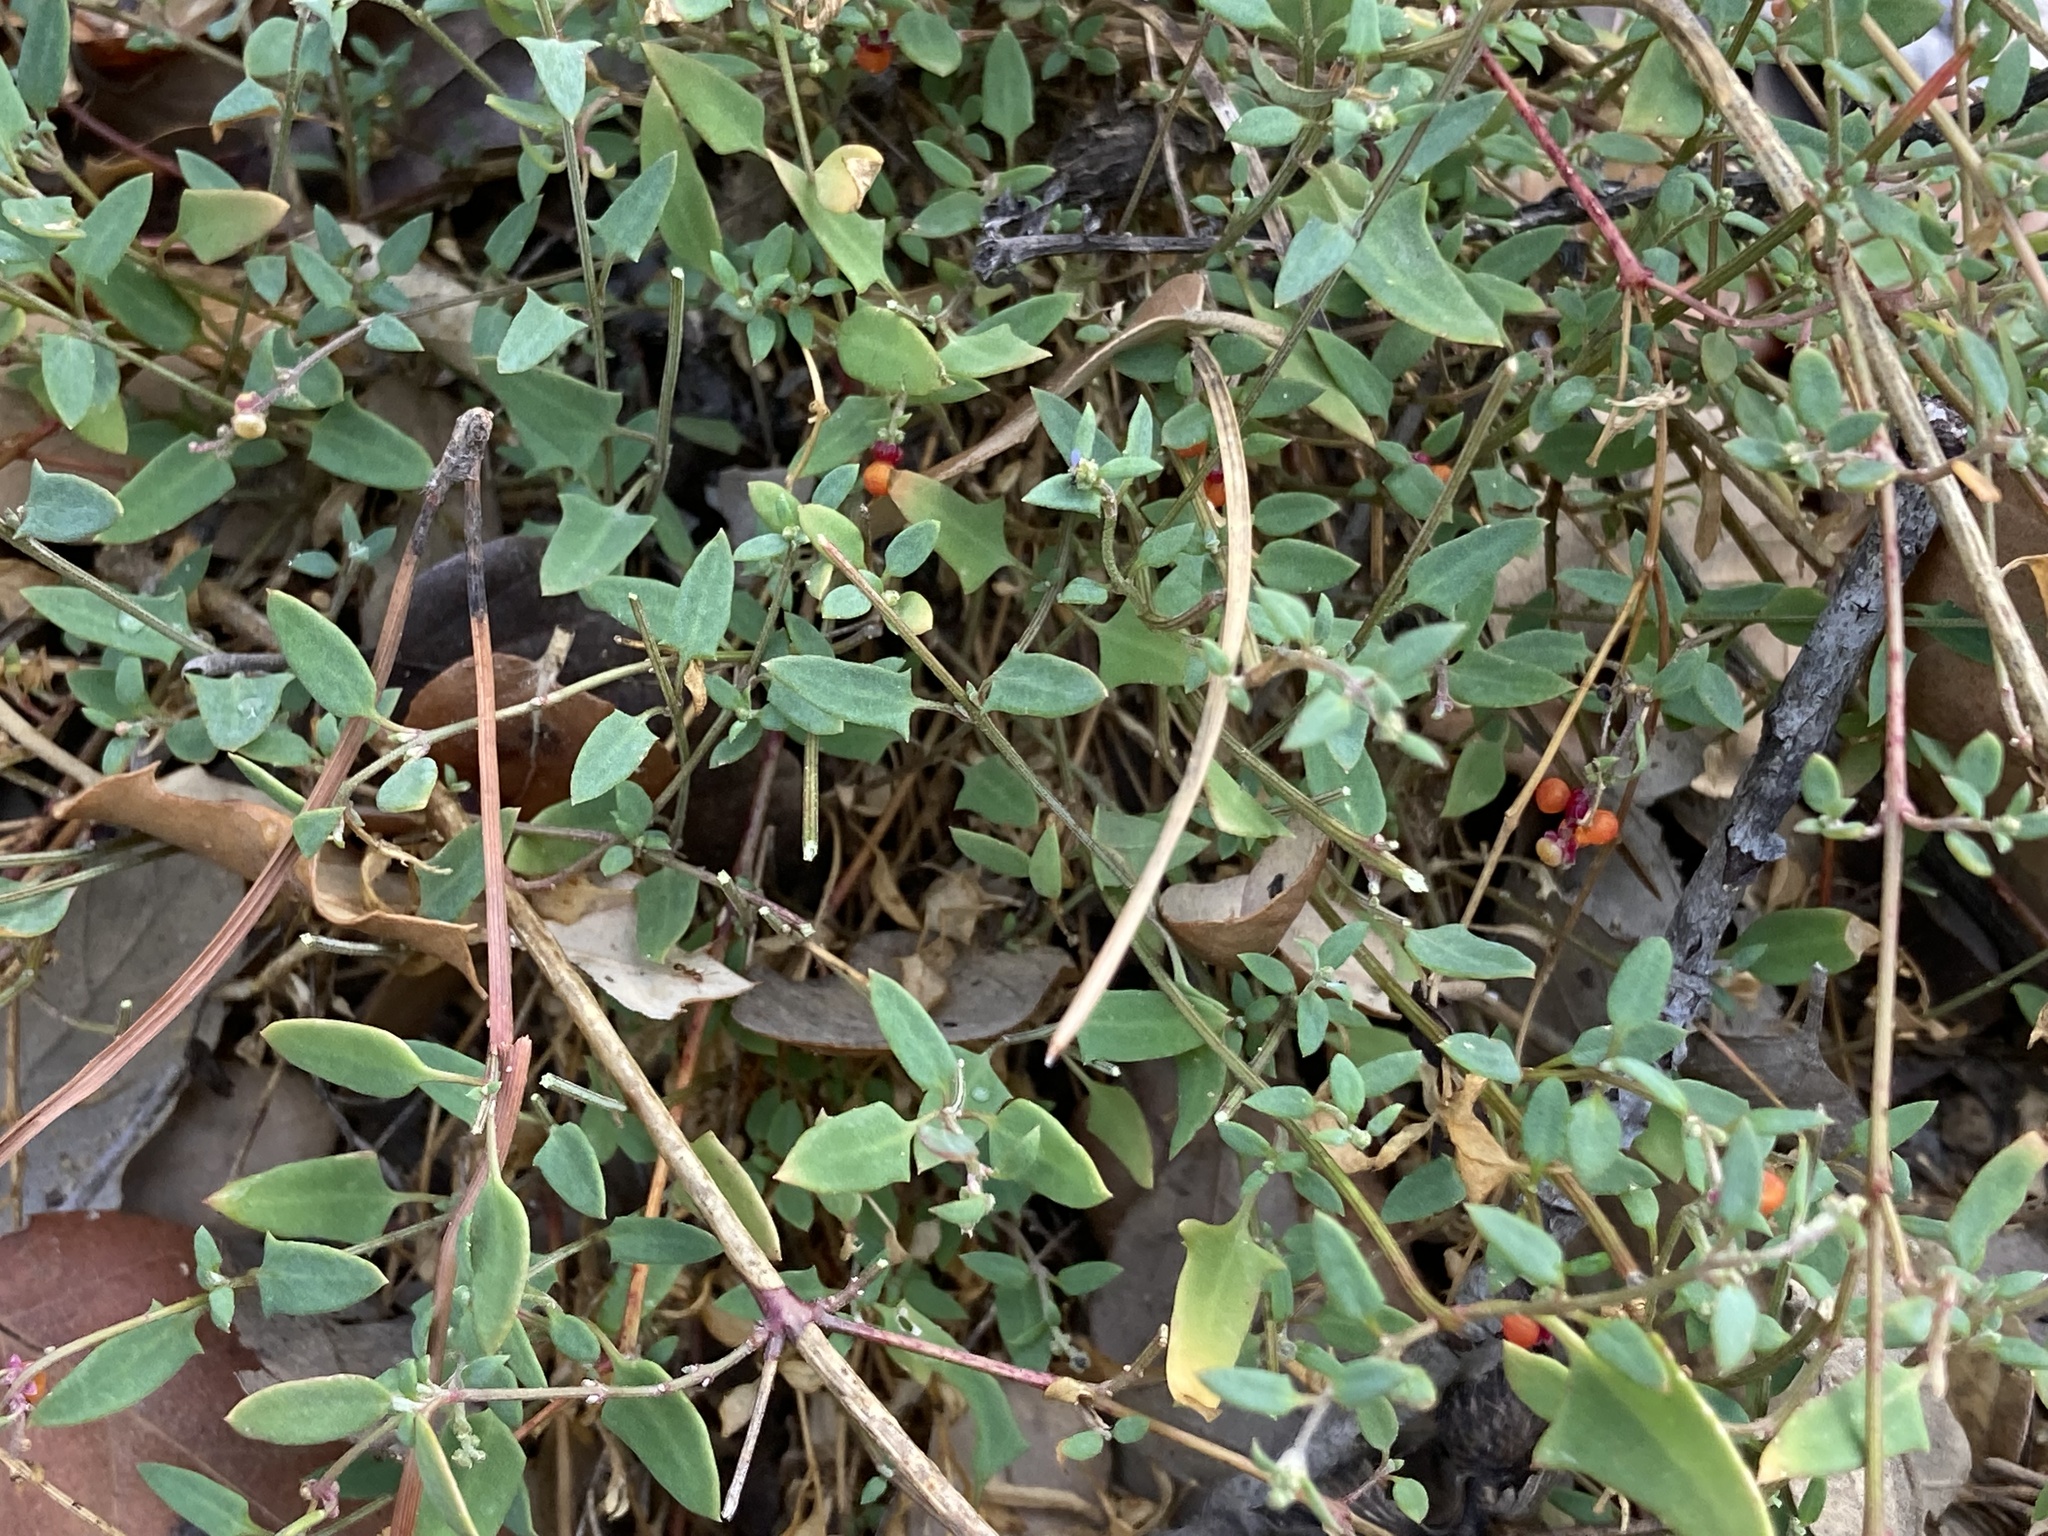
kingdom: Plantae
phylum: Tracheophyta
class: Magnoliopsida
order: Caryophyllales
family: Amaranthaceae
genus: Chenopodium
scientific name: Chenopodium nutans
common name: Climbing-saltbush
